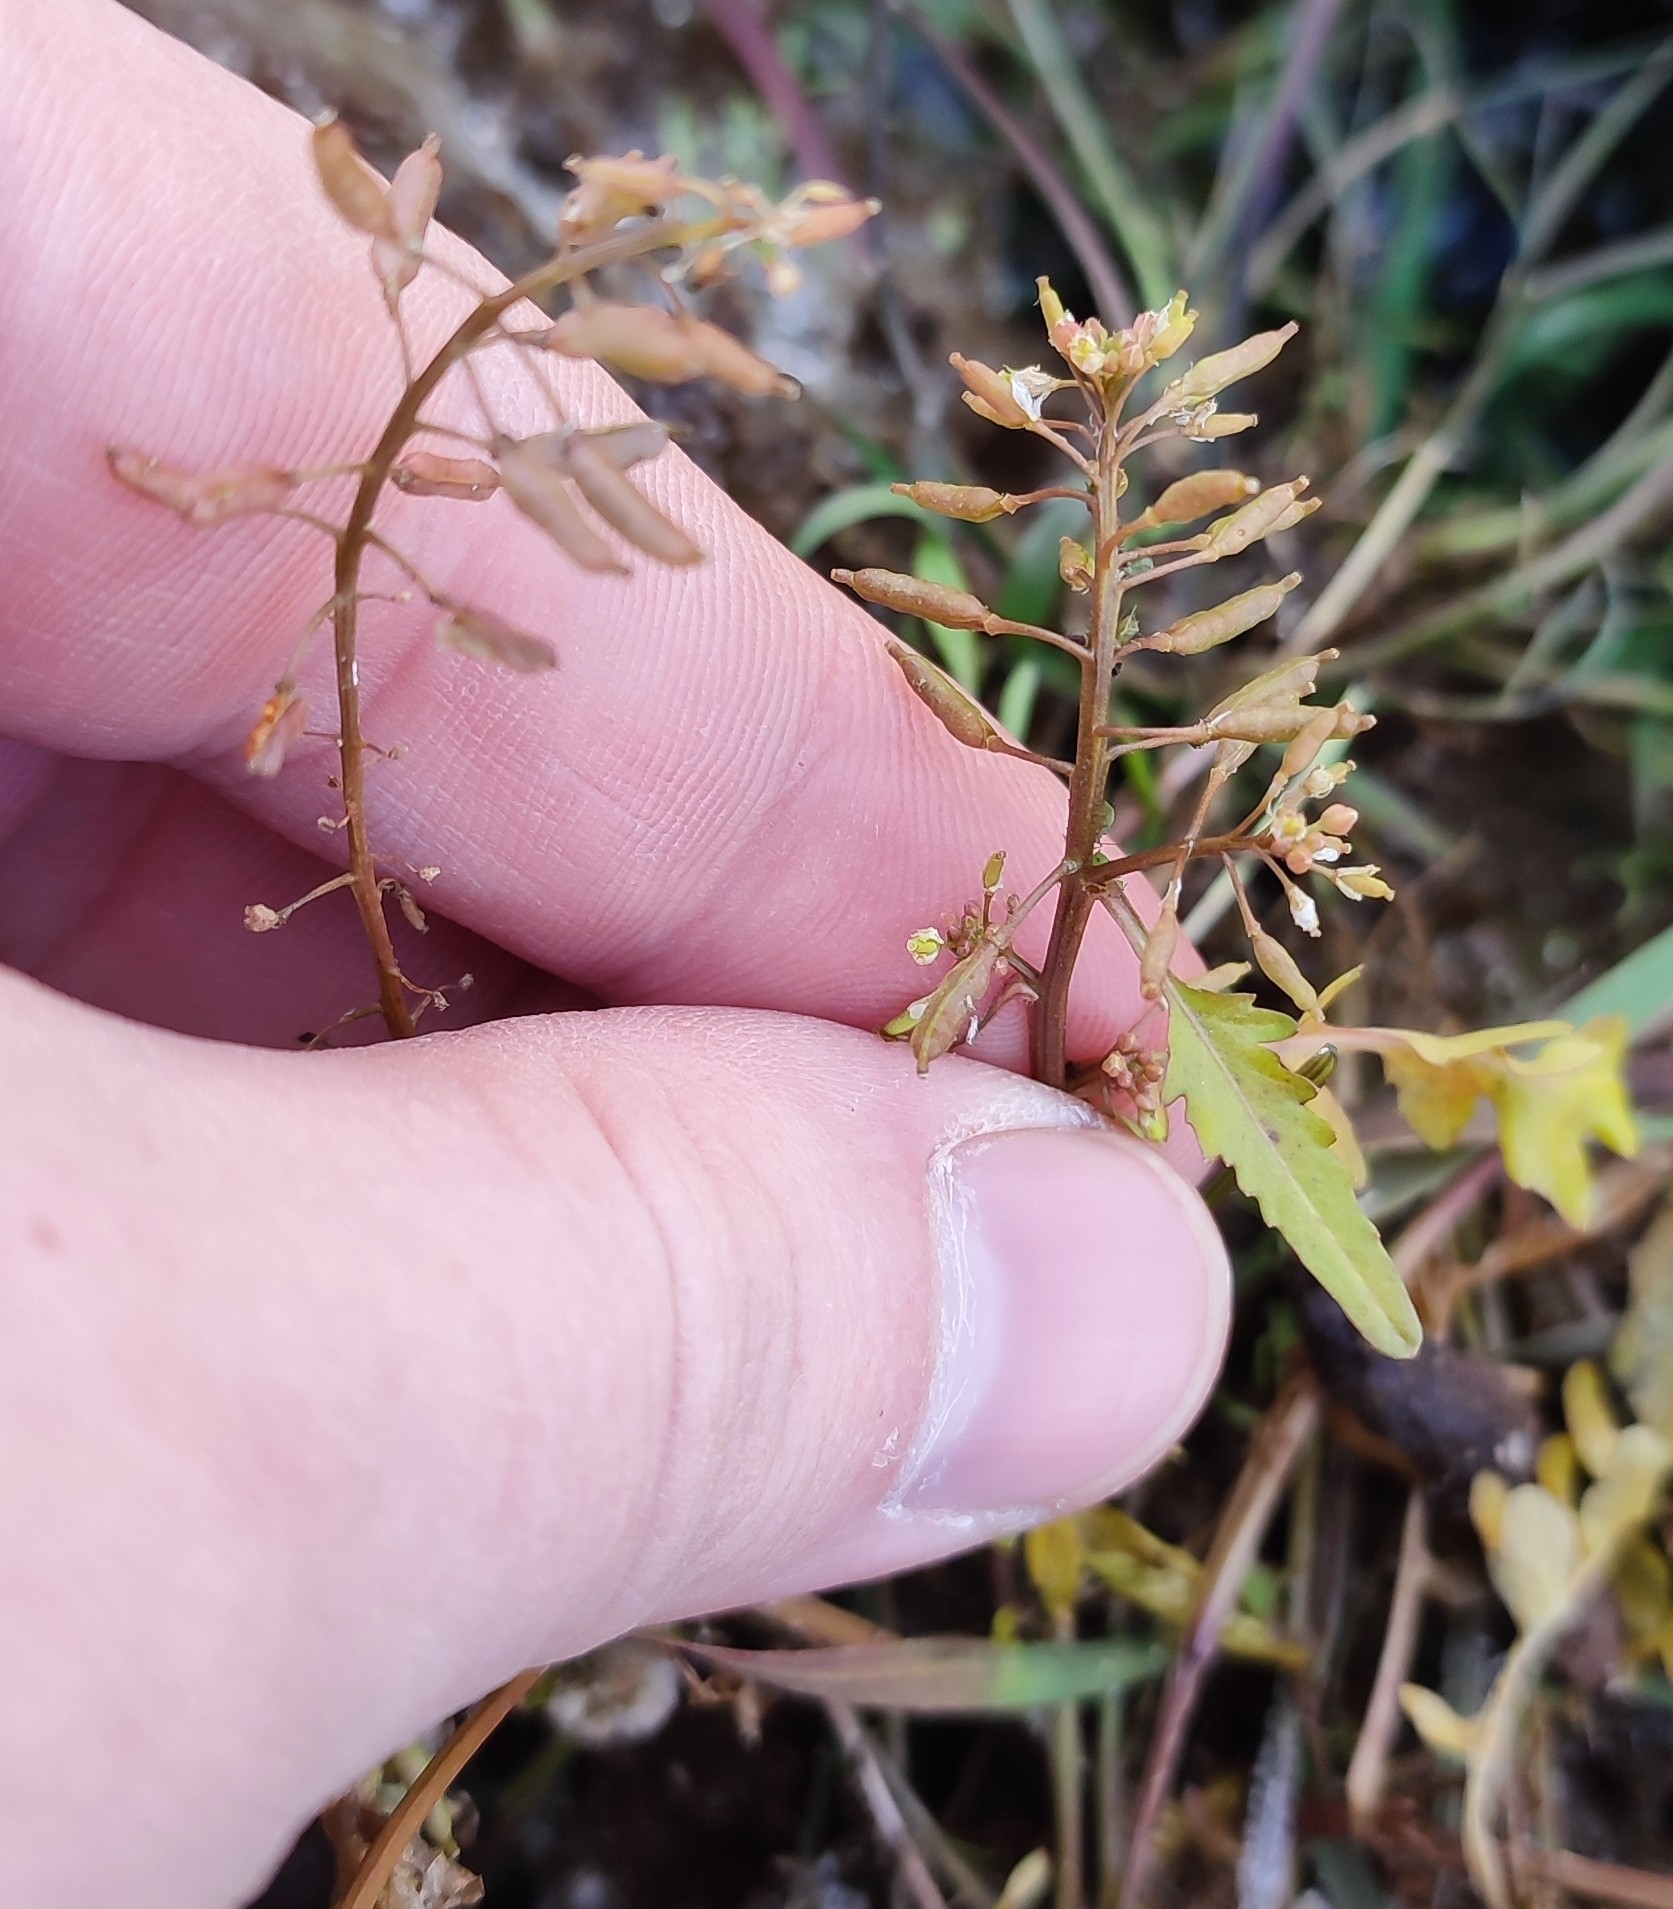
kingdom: Plantae
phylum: Tracheophyta
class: Magnoliopsida
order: Brassicales
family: Brassicaceae
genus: Rorippa
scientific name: Rorippa palustris
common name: Marsh yellow-cress
